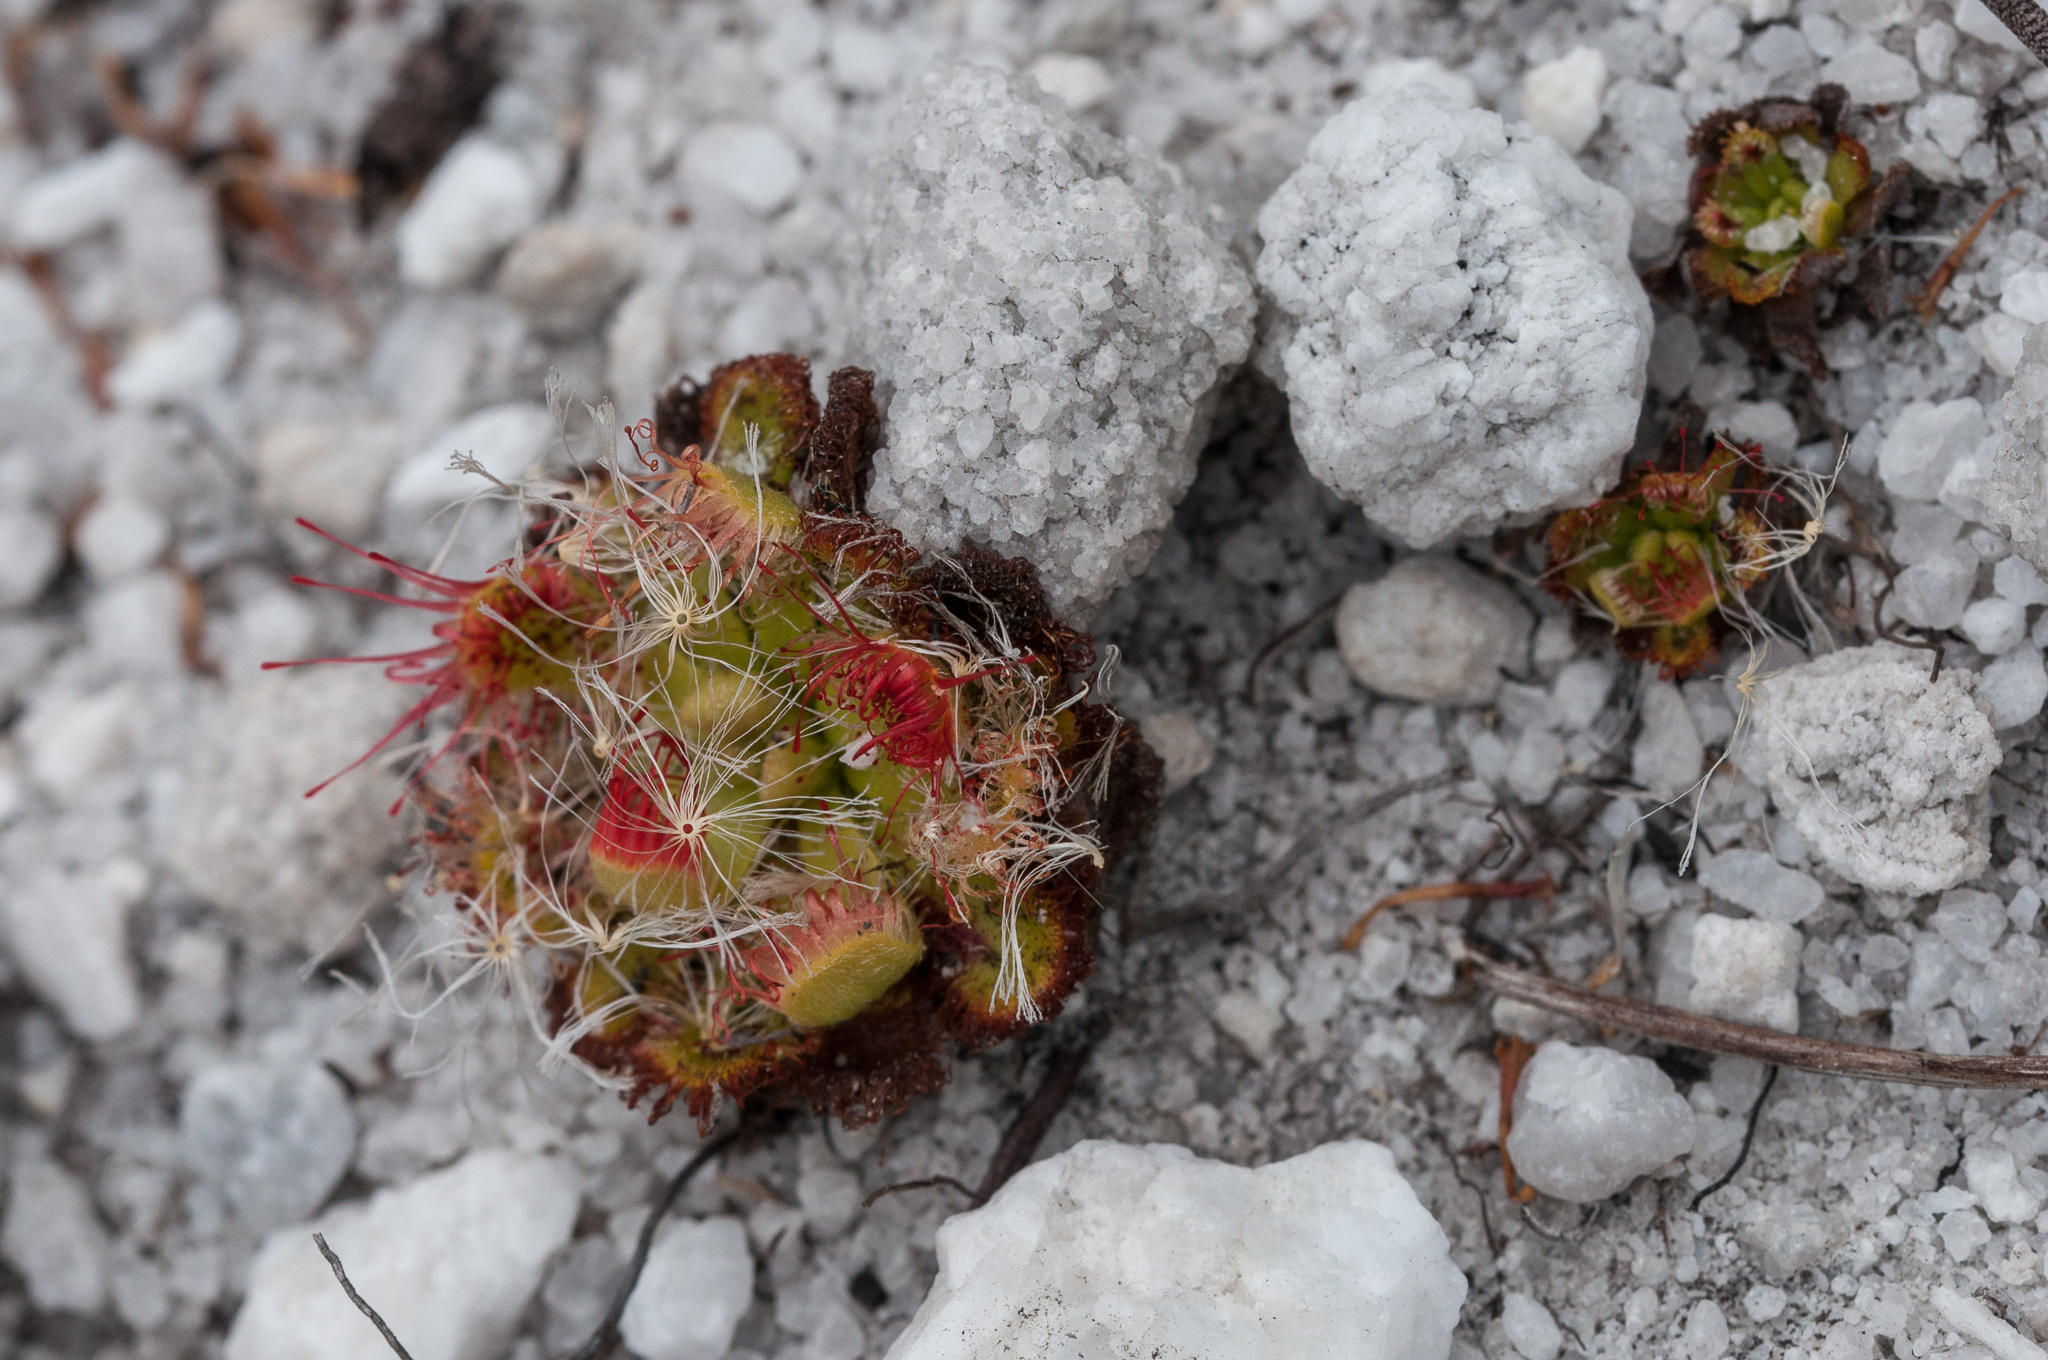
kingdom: Plantae
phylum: Tracheophyta
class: Magnoliopsida
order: Caryophyllales
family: Droseraceae
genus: Drosera
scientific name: Drosera xerophila
